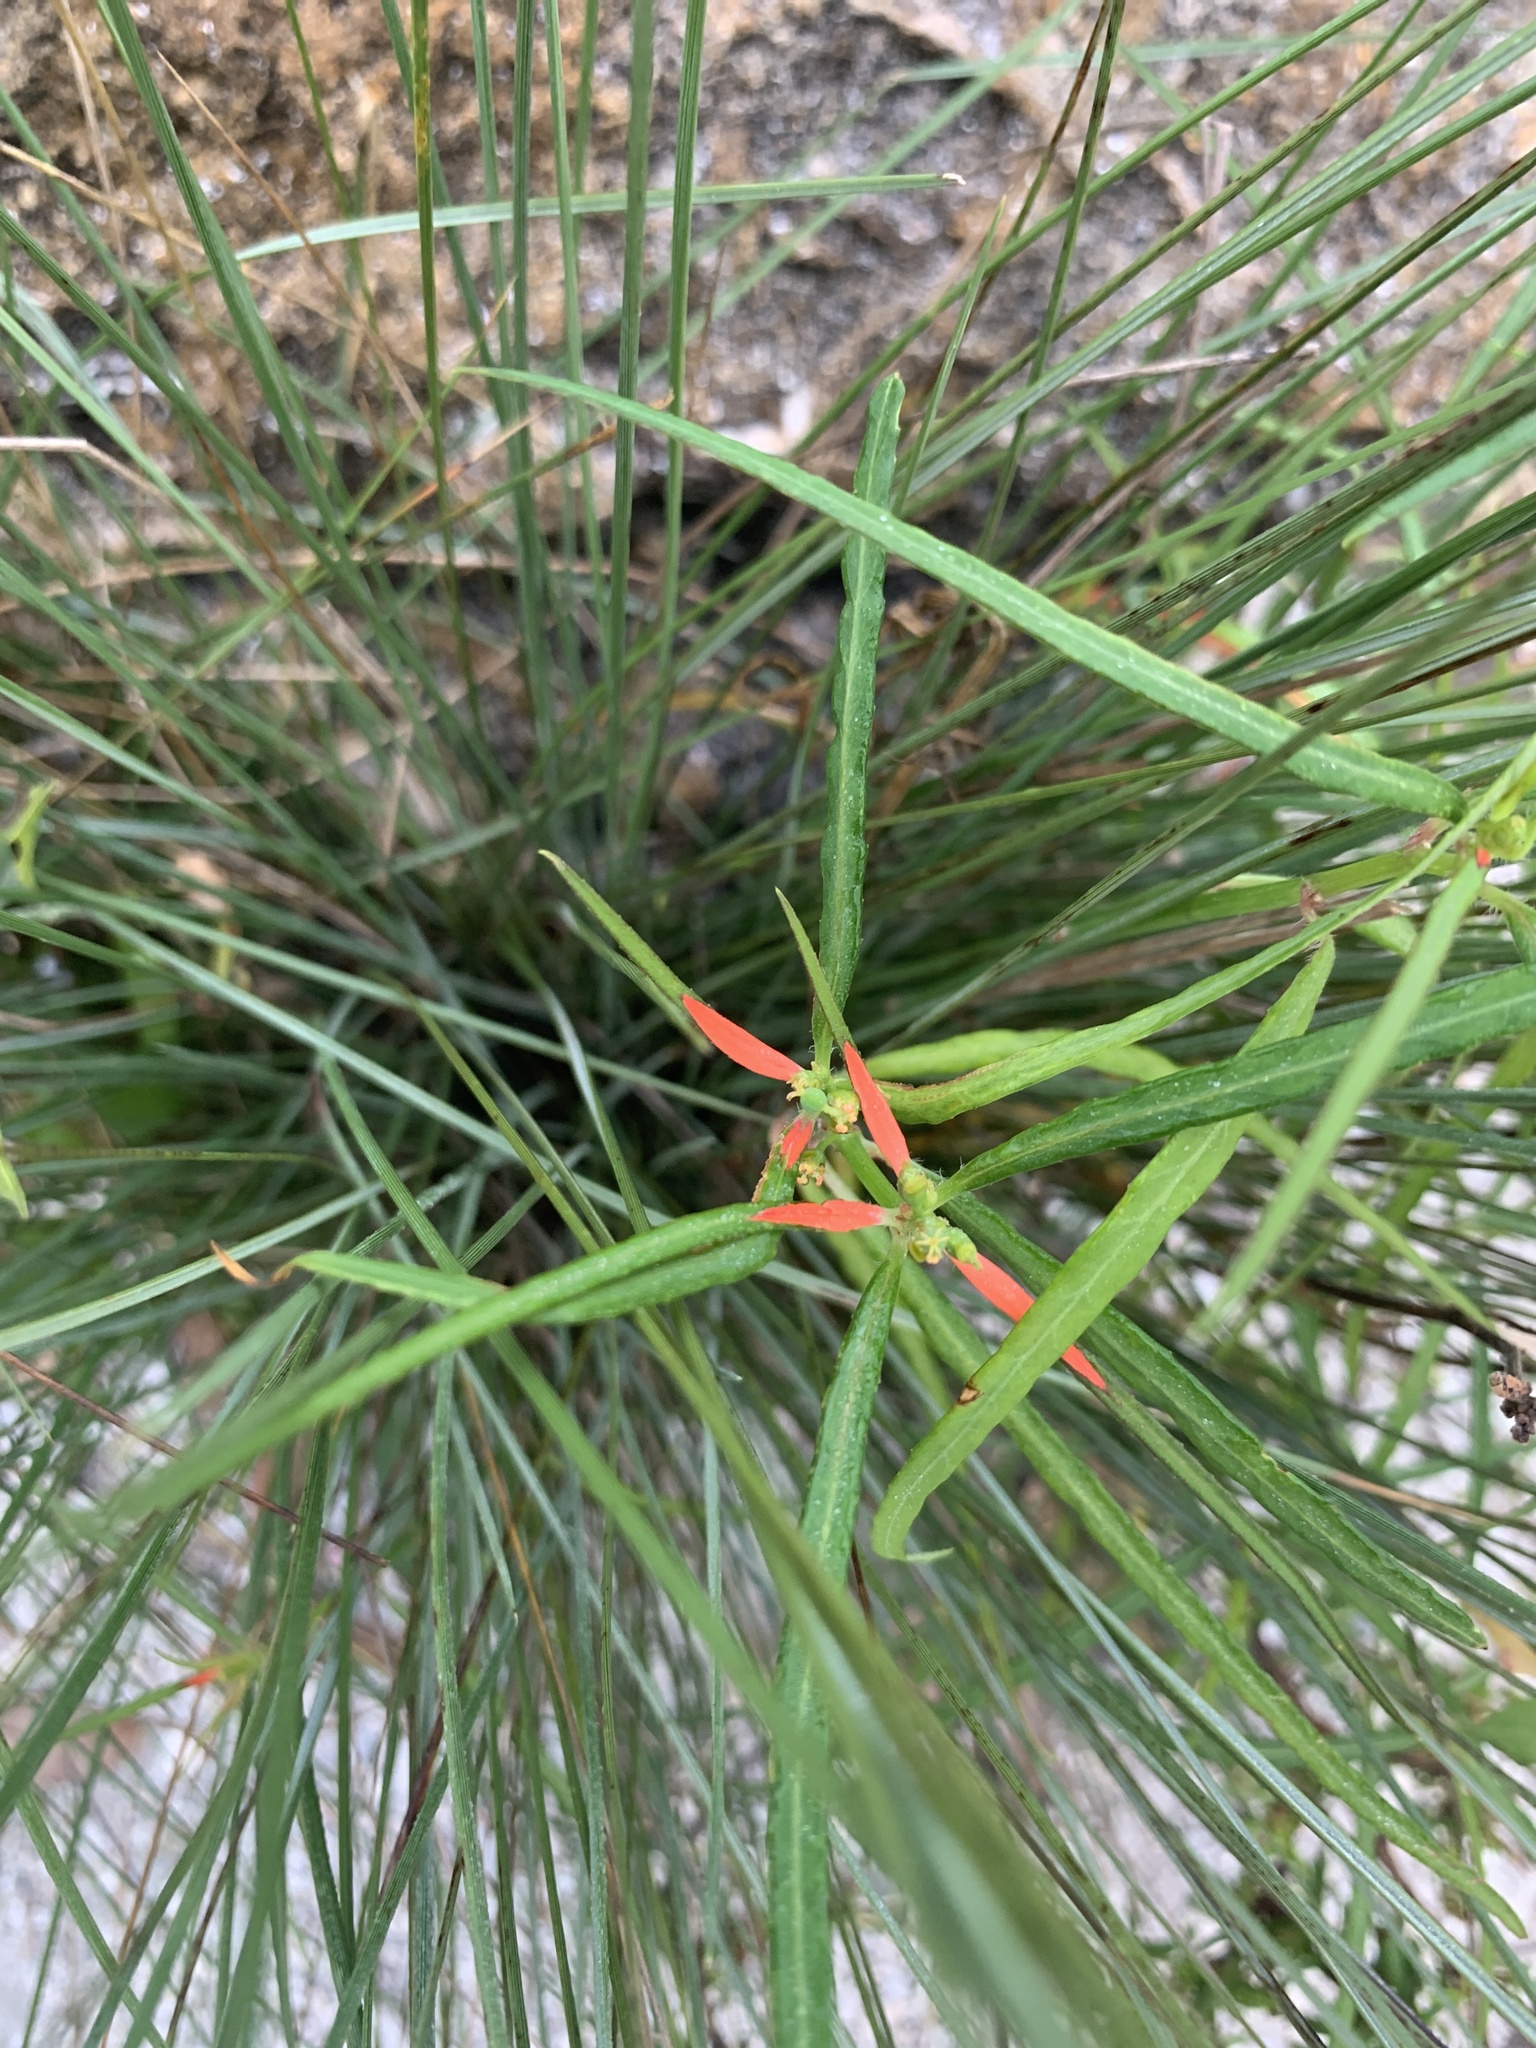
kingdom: Plantae
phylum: Tracheophyta
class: Magnoliopsida
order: Malpighiales
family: Euphorbiaceae
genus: Euphorbia
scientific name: Euphorbia heterophylla
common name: Mexican fireplant
